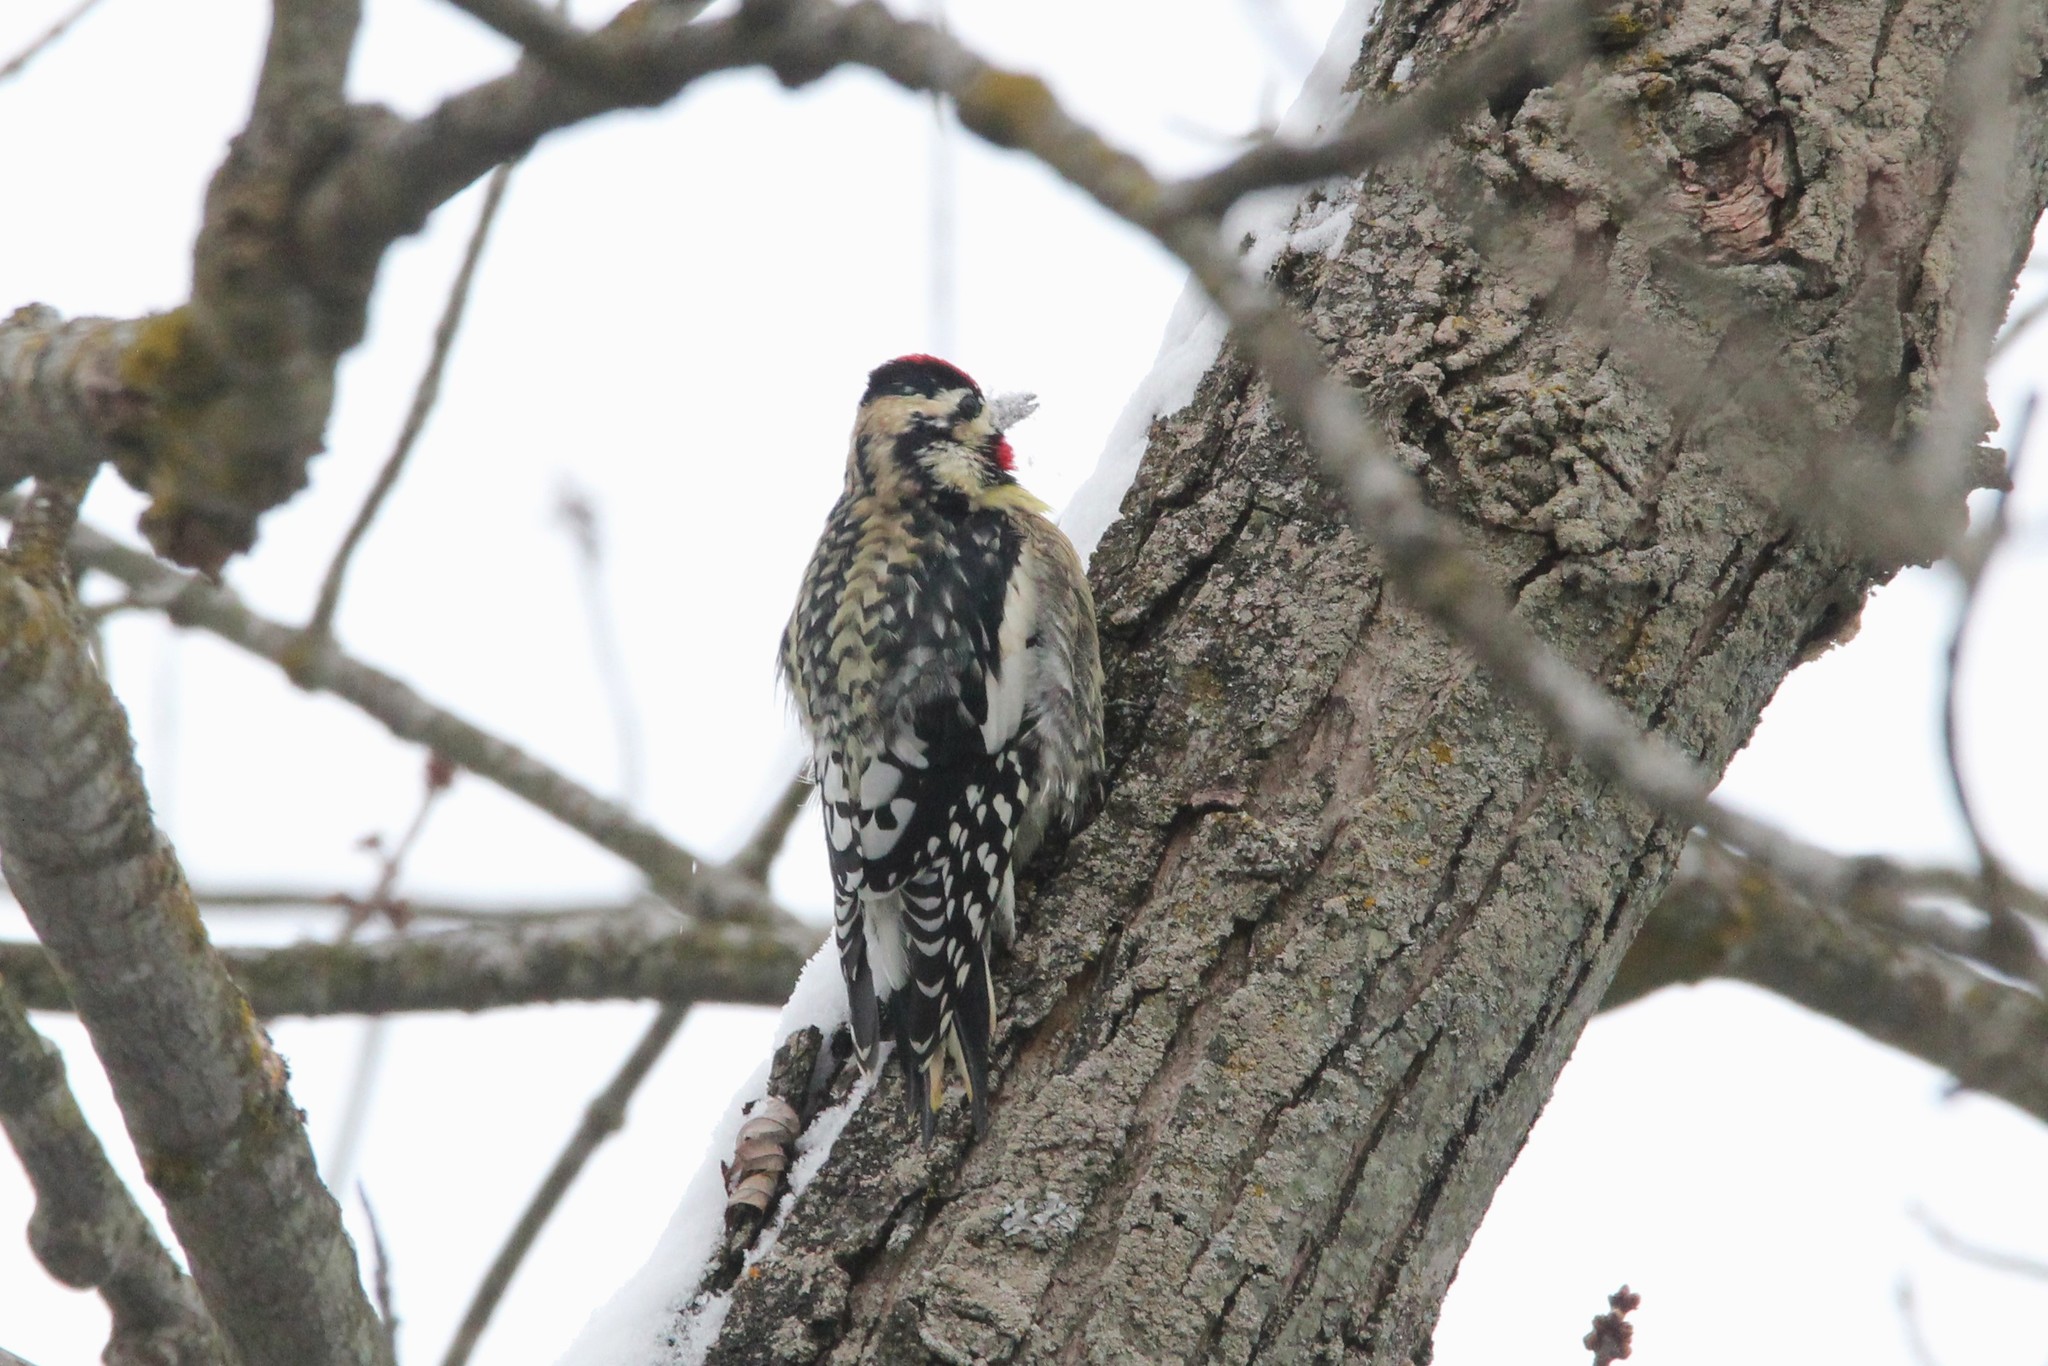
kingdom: Animalia
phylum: Chordata
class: Aves
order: Piciformes
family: Picidae
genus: Sphyrapicus
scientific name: Sphyrapicus varius
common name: Yellow-bellied sapsucker
